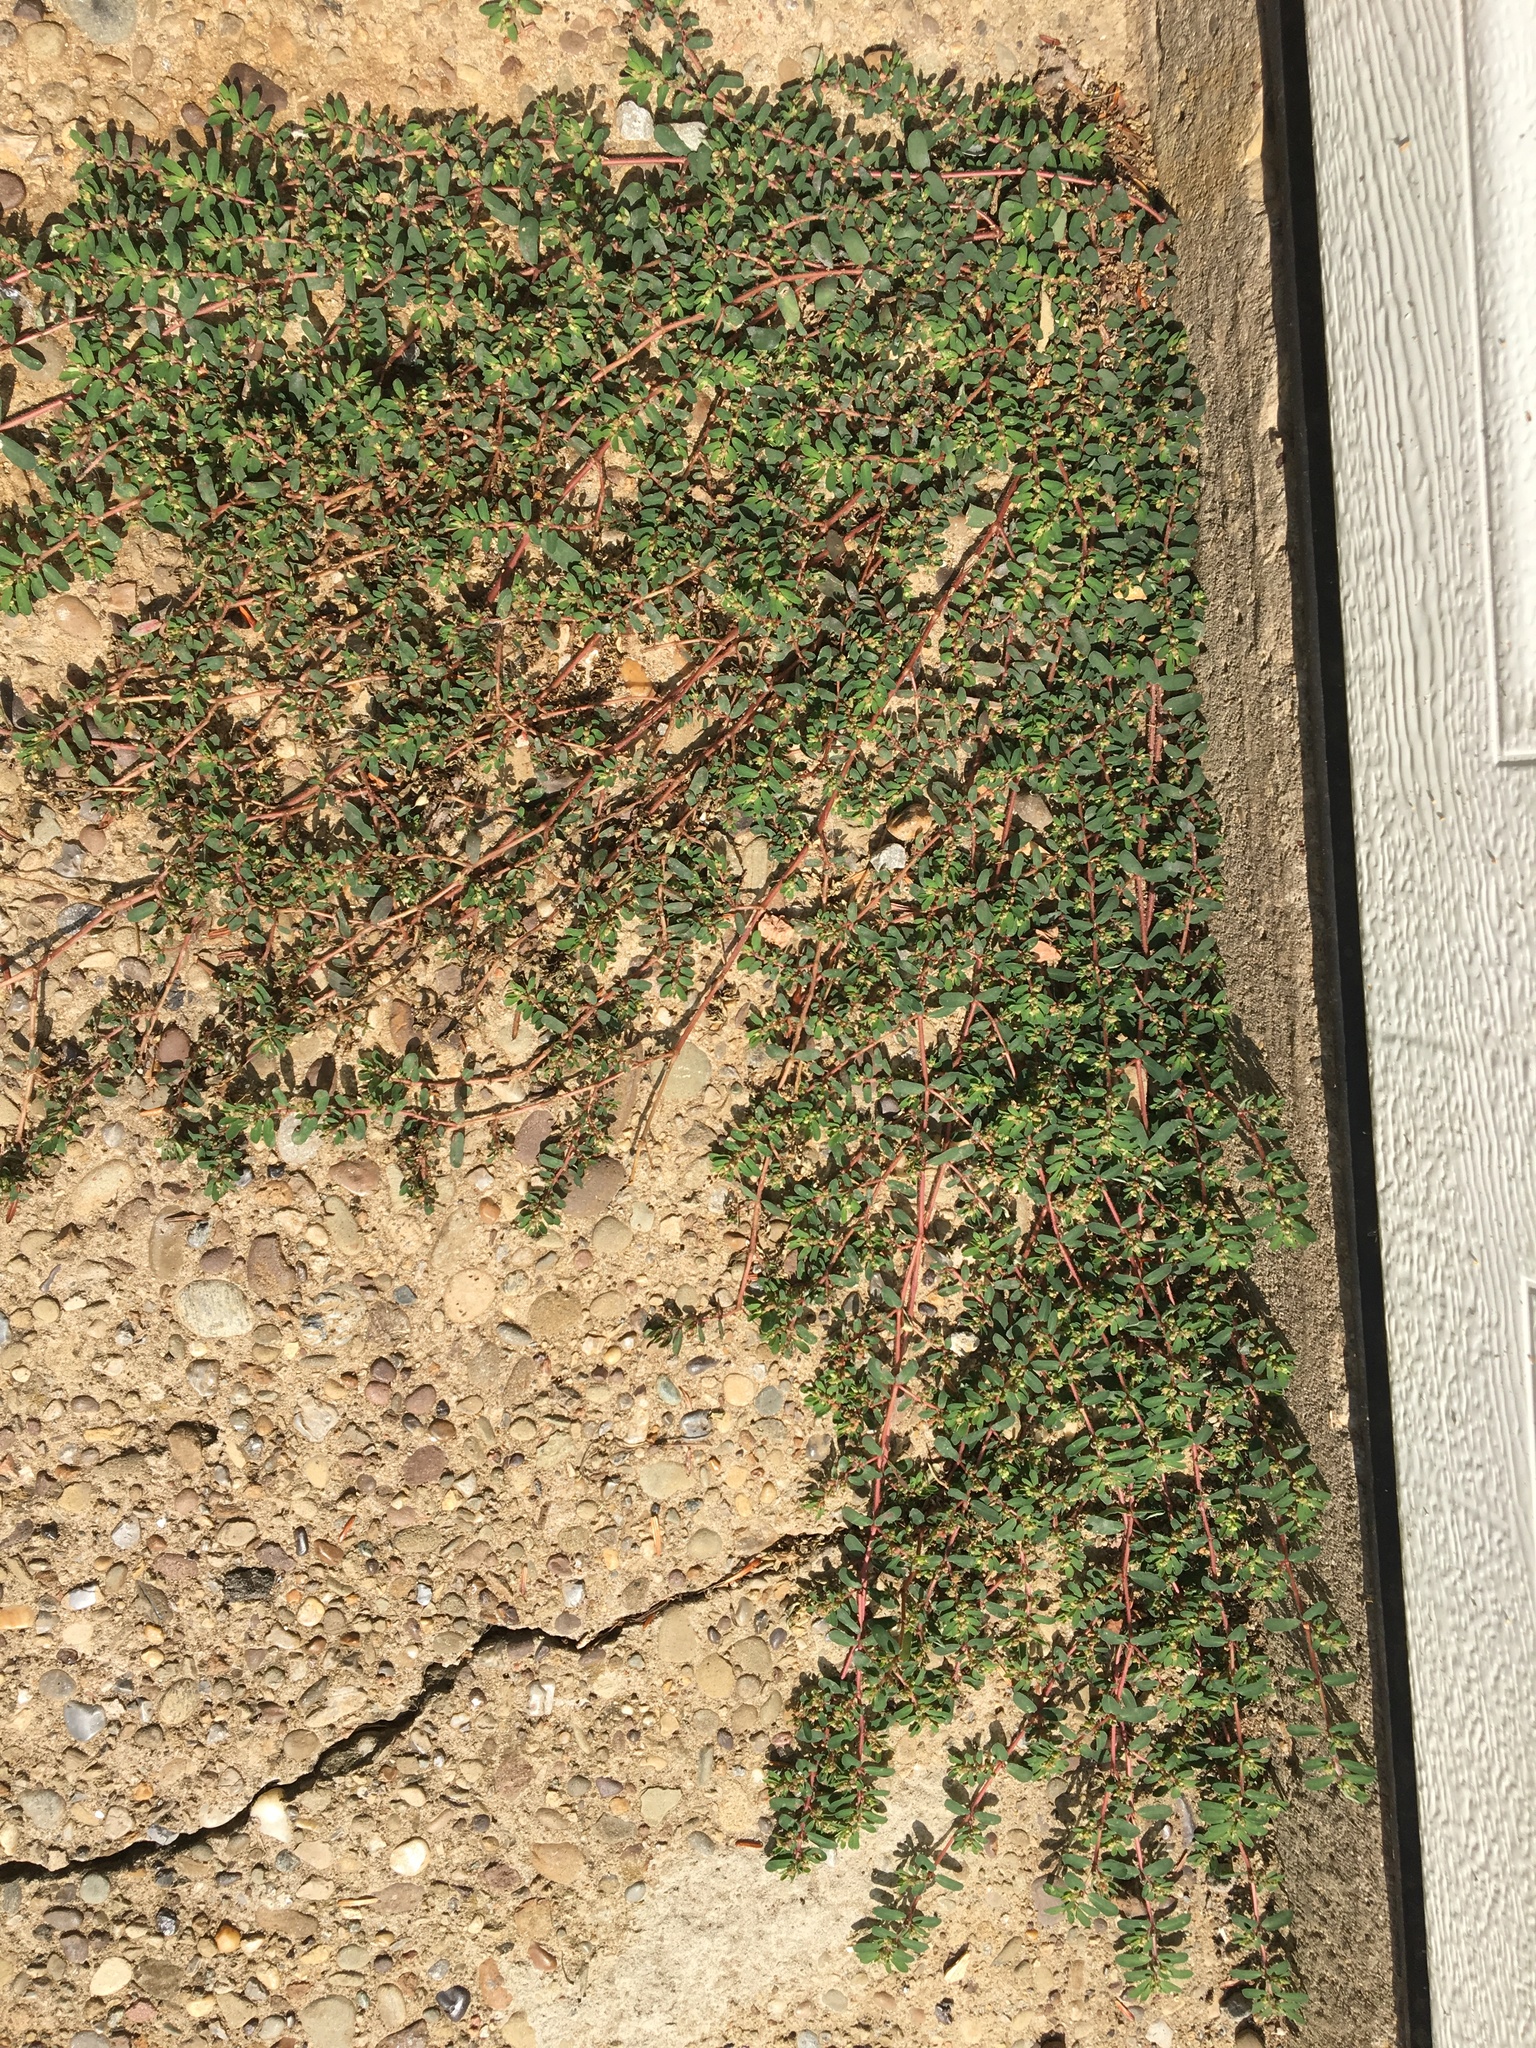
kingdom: Plantae
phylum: Tracheophyta
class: Magnoliopsida
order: Malpighiales
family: Euphorbiaceae
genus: Euphorbia
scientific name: Euphorbia maculata
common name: Spotted spurge
